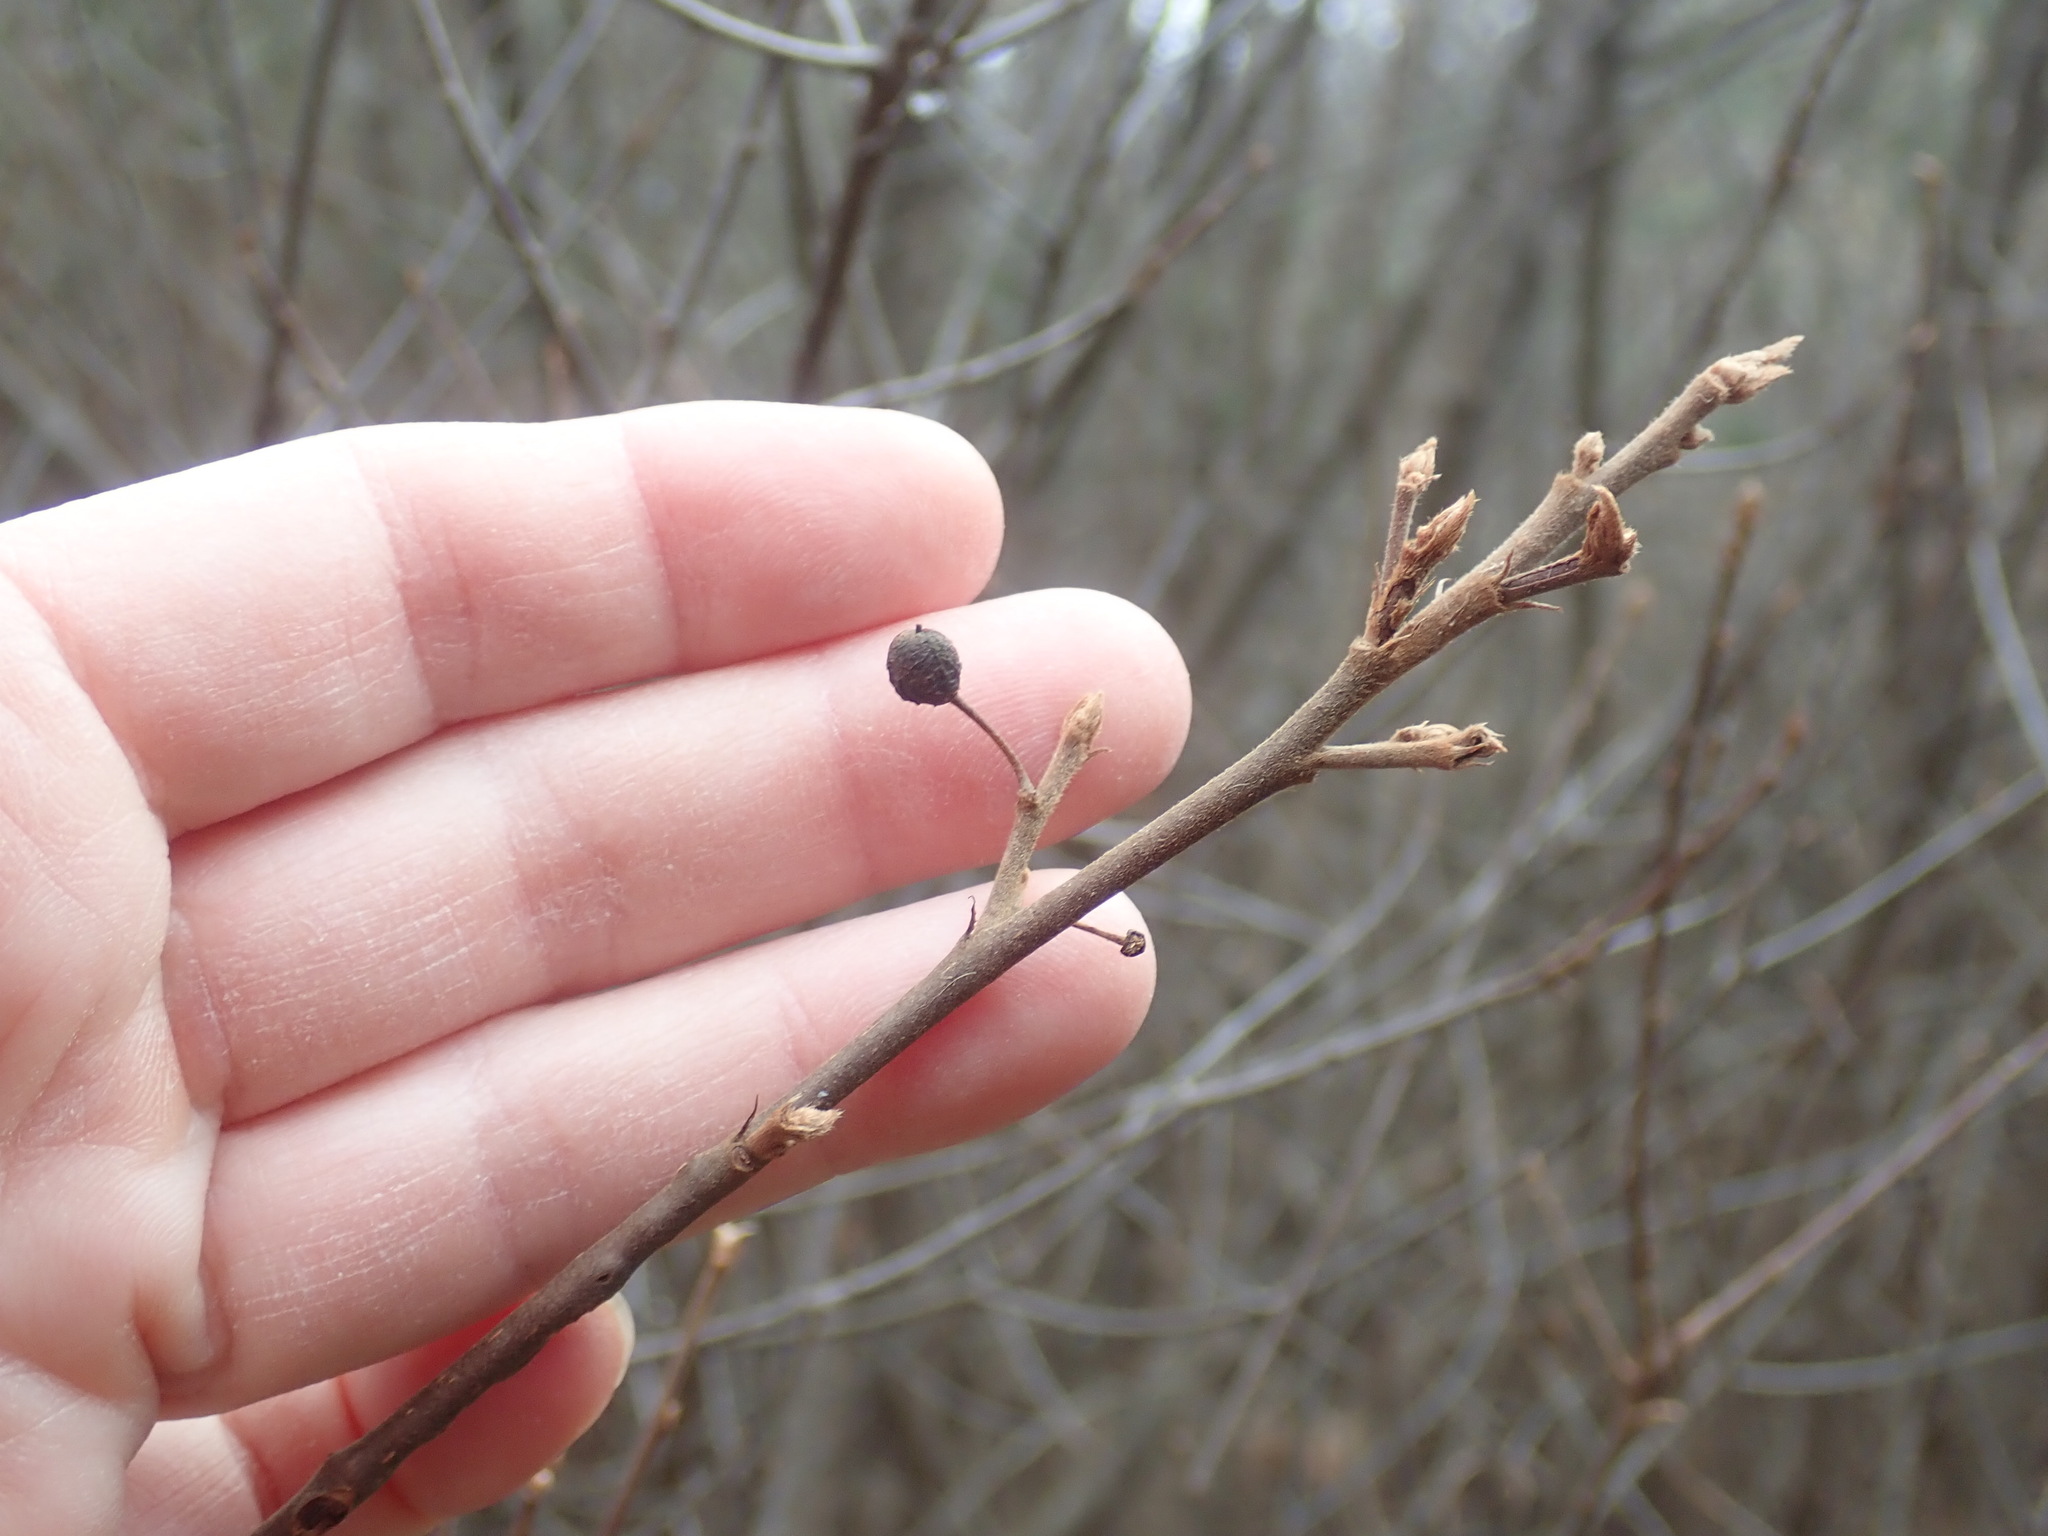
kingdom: Plantae
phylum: Tracheophyta
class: Magnoliopsida
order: Rosales
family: Rhamnaceae
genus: Frangula
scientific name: Frangula alnus
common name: Alder buckthorn
